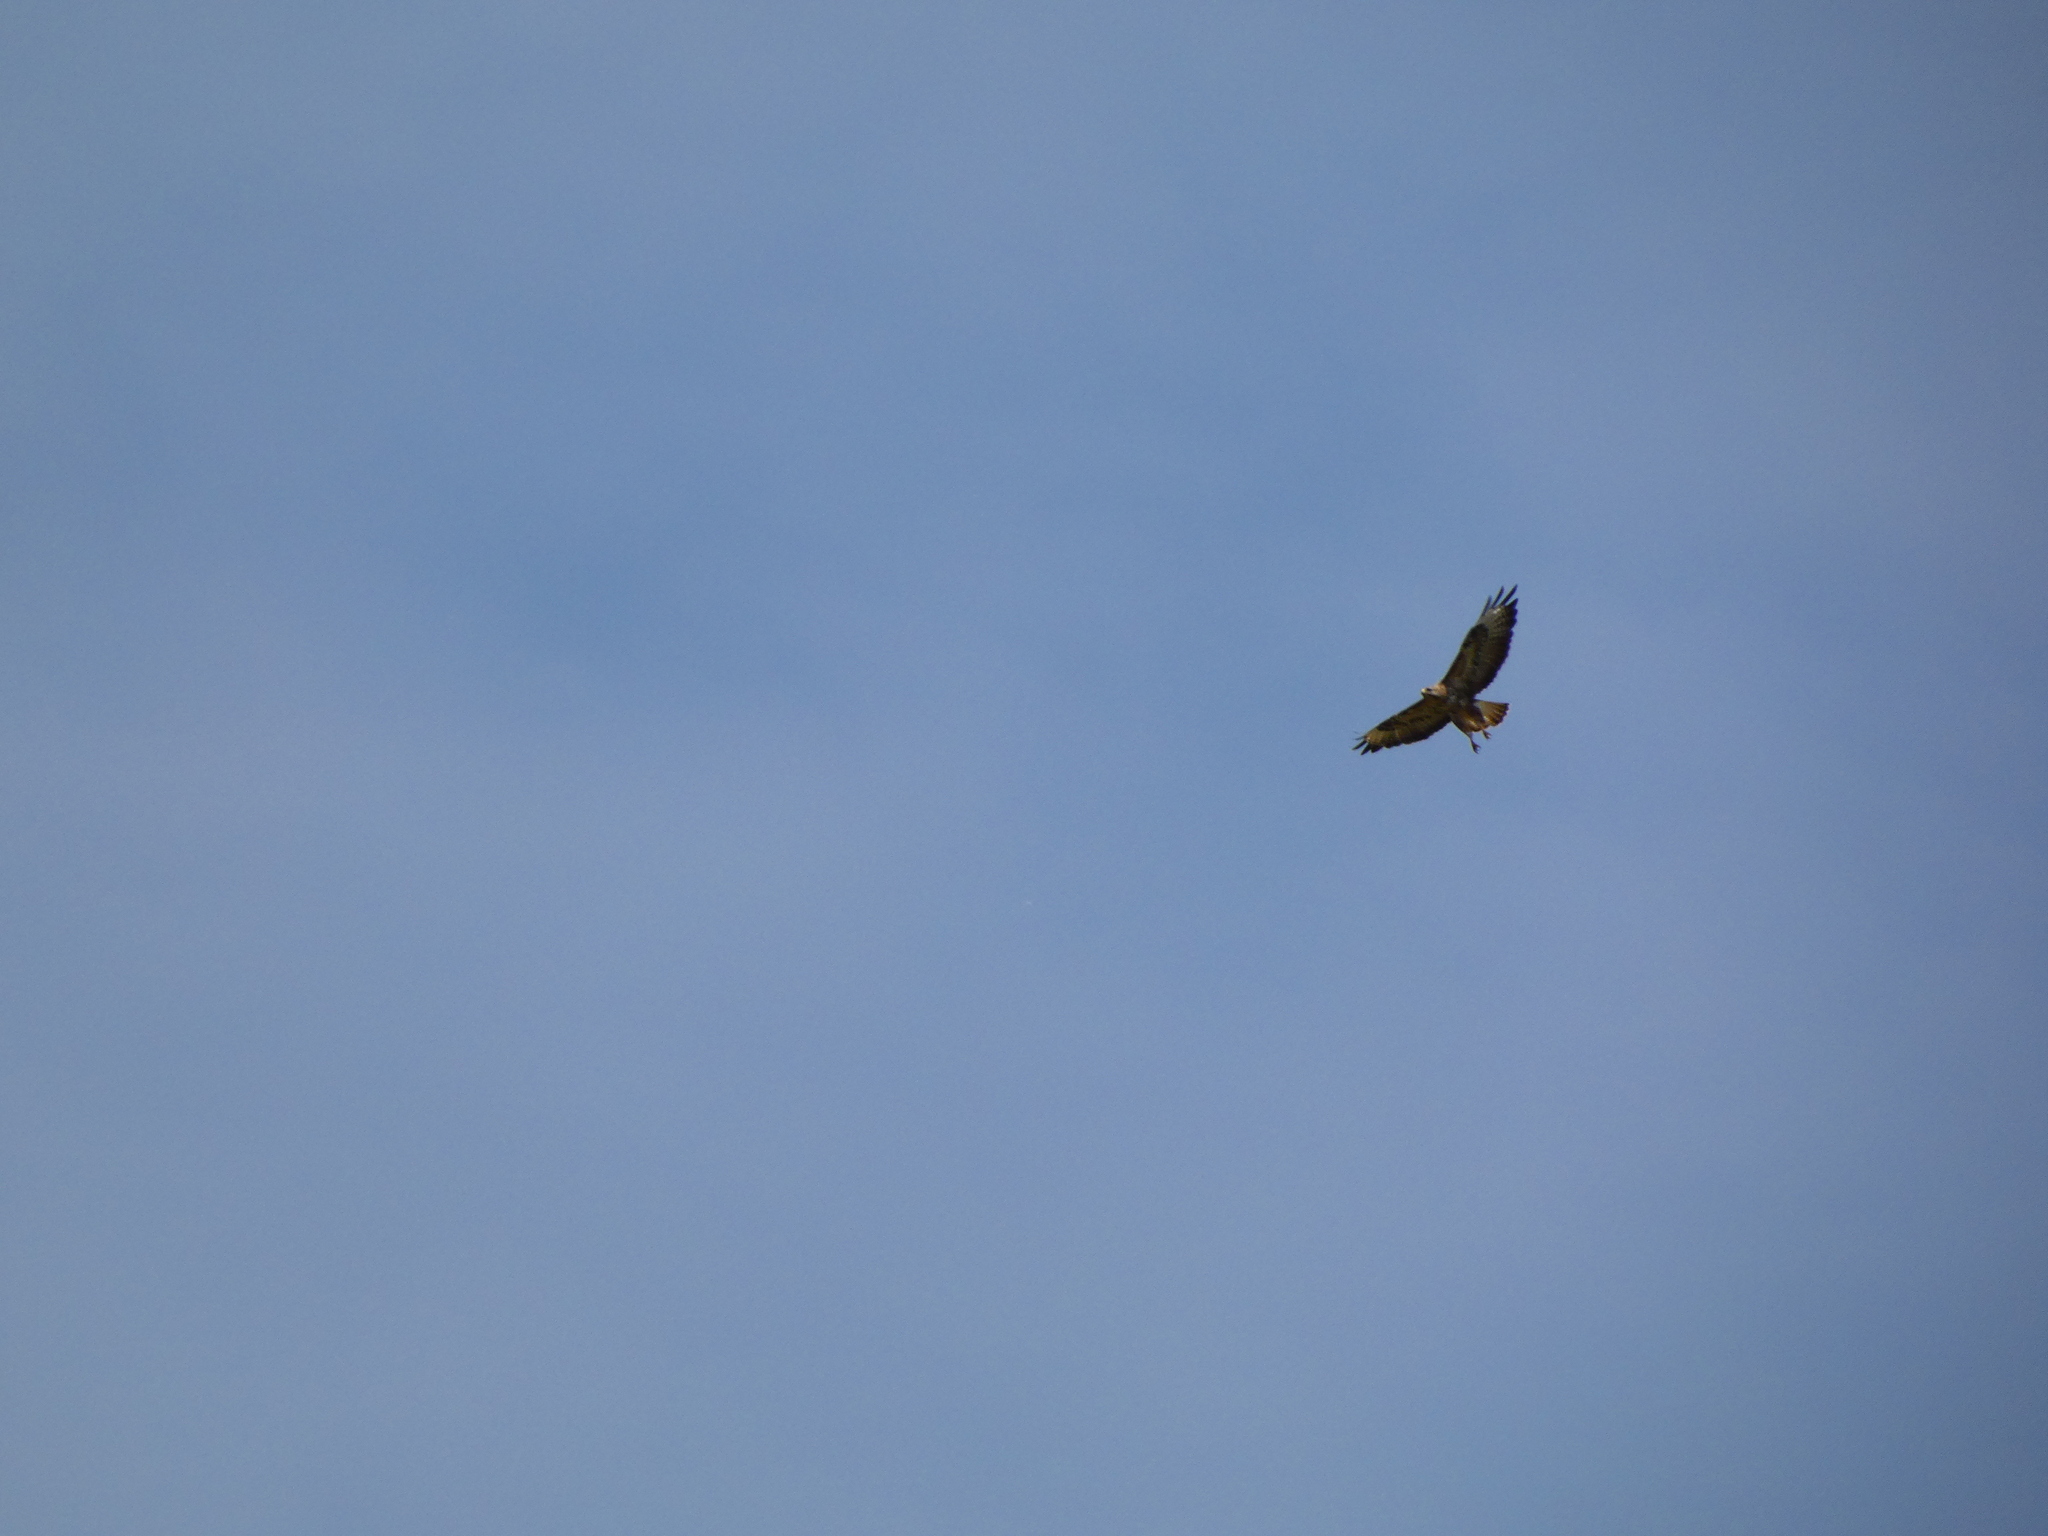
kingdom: Animalia
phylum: Chordata
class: Aves
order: Accipitriformes
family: Accipitridae
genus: Buteo
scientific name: Buteo buteo
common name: Common buzzard
